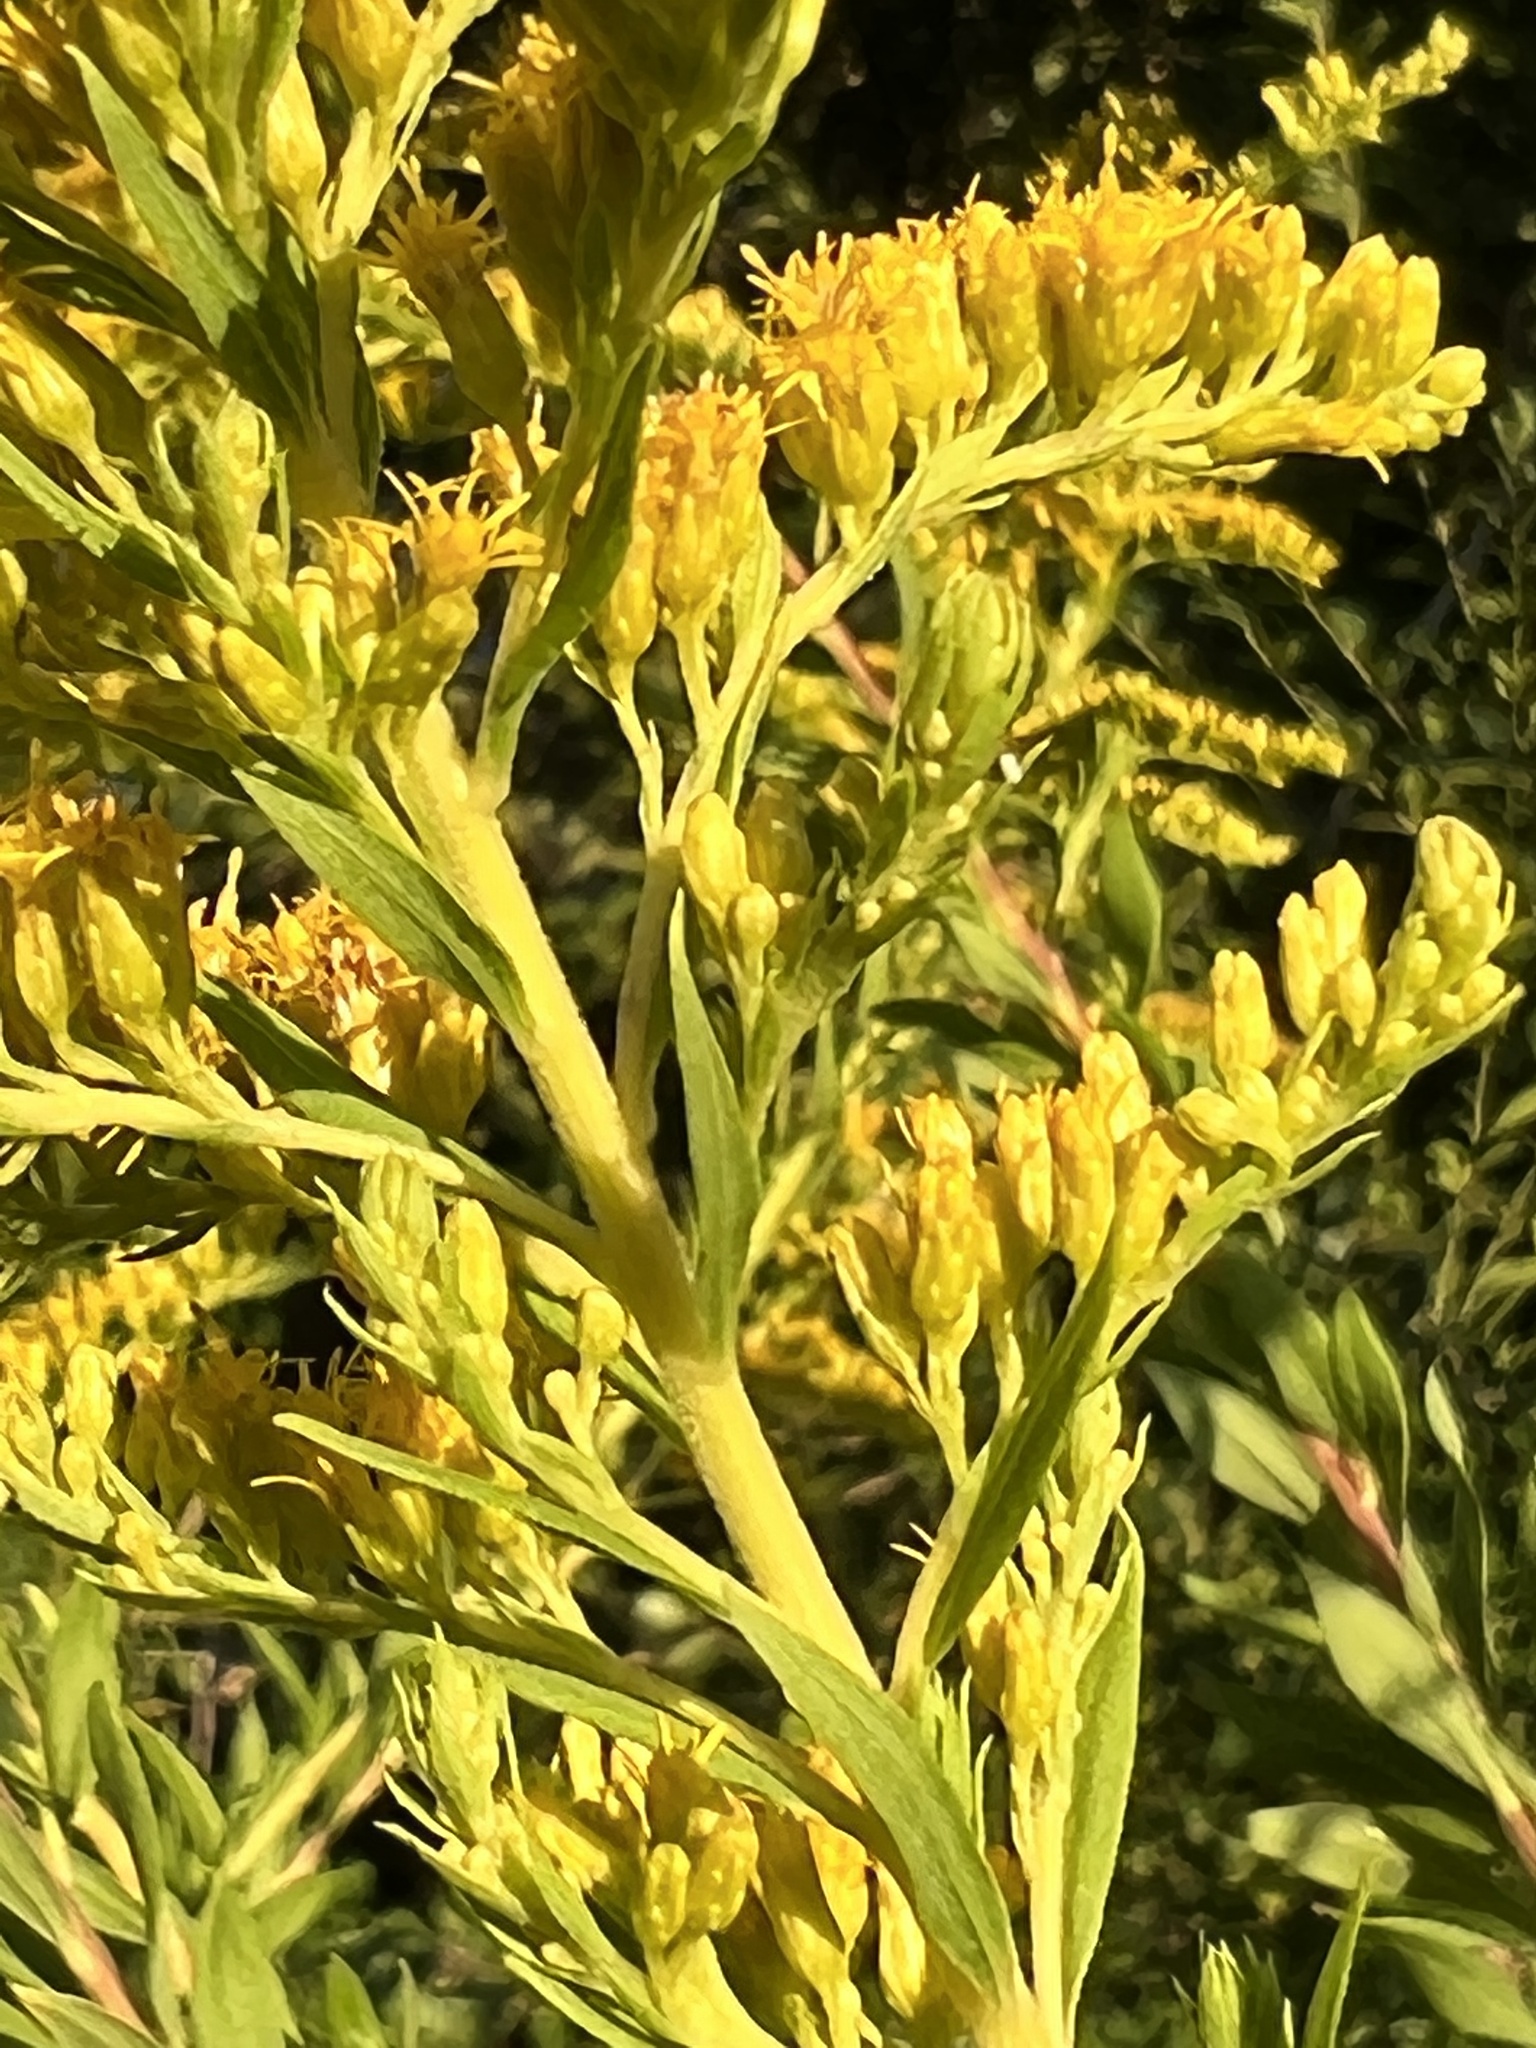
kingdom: Plantae
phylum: Tracheophyta
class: Magnoliopsida
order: Asterales
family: Asteraceae
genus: Solidago
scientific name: Solidago altissima
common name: Late goldenrod
